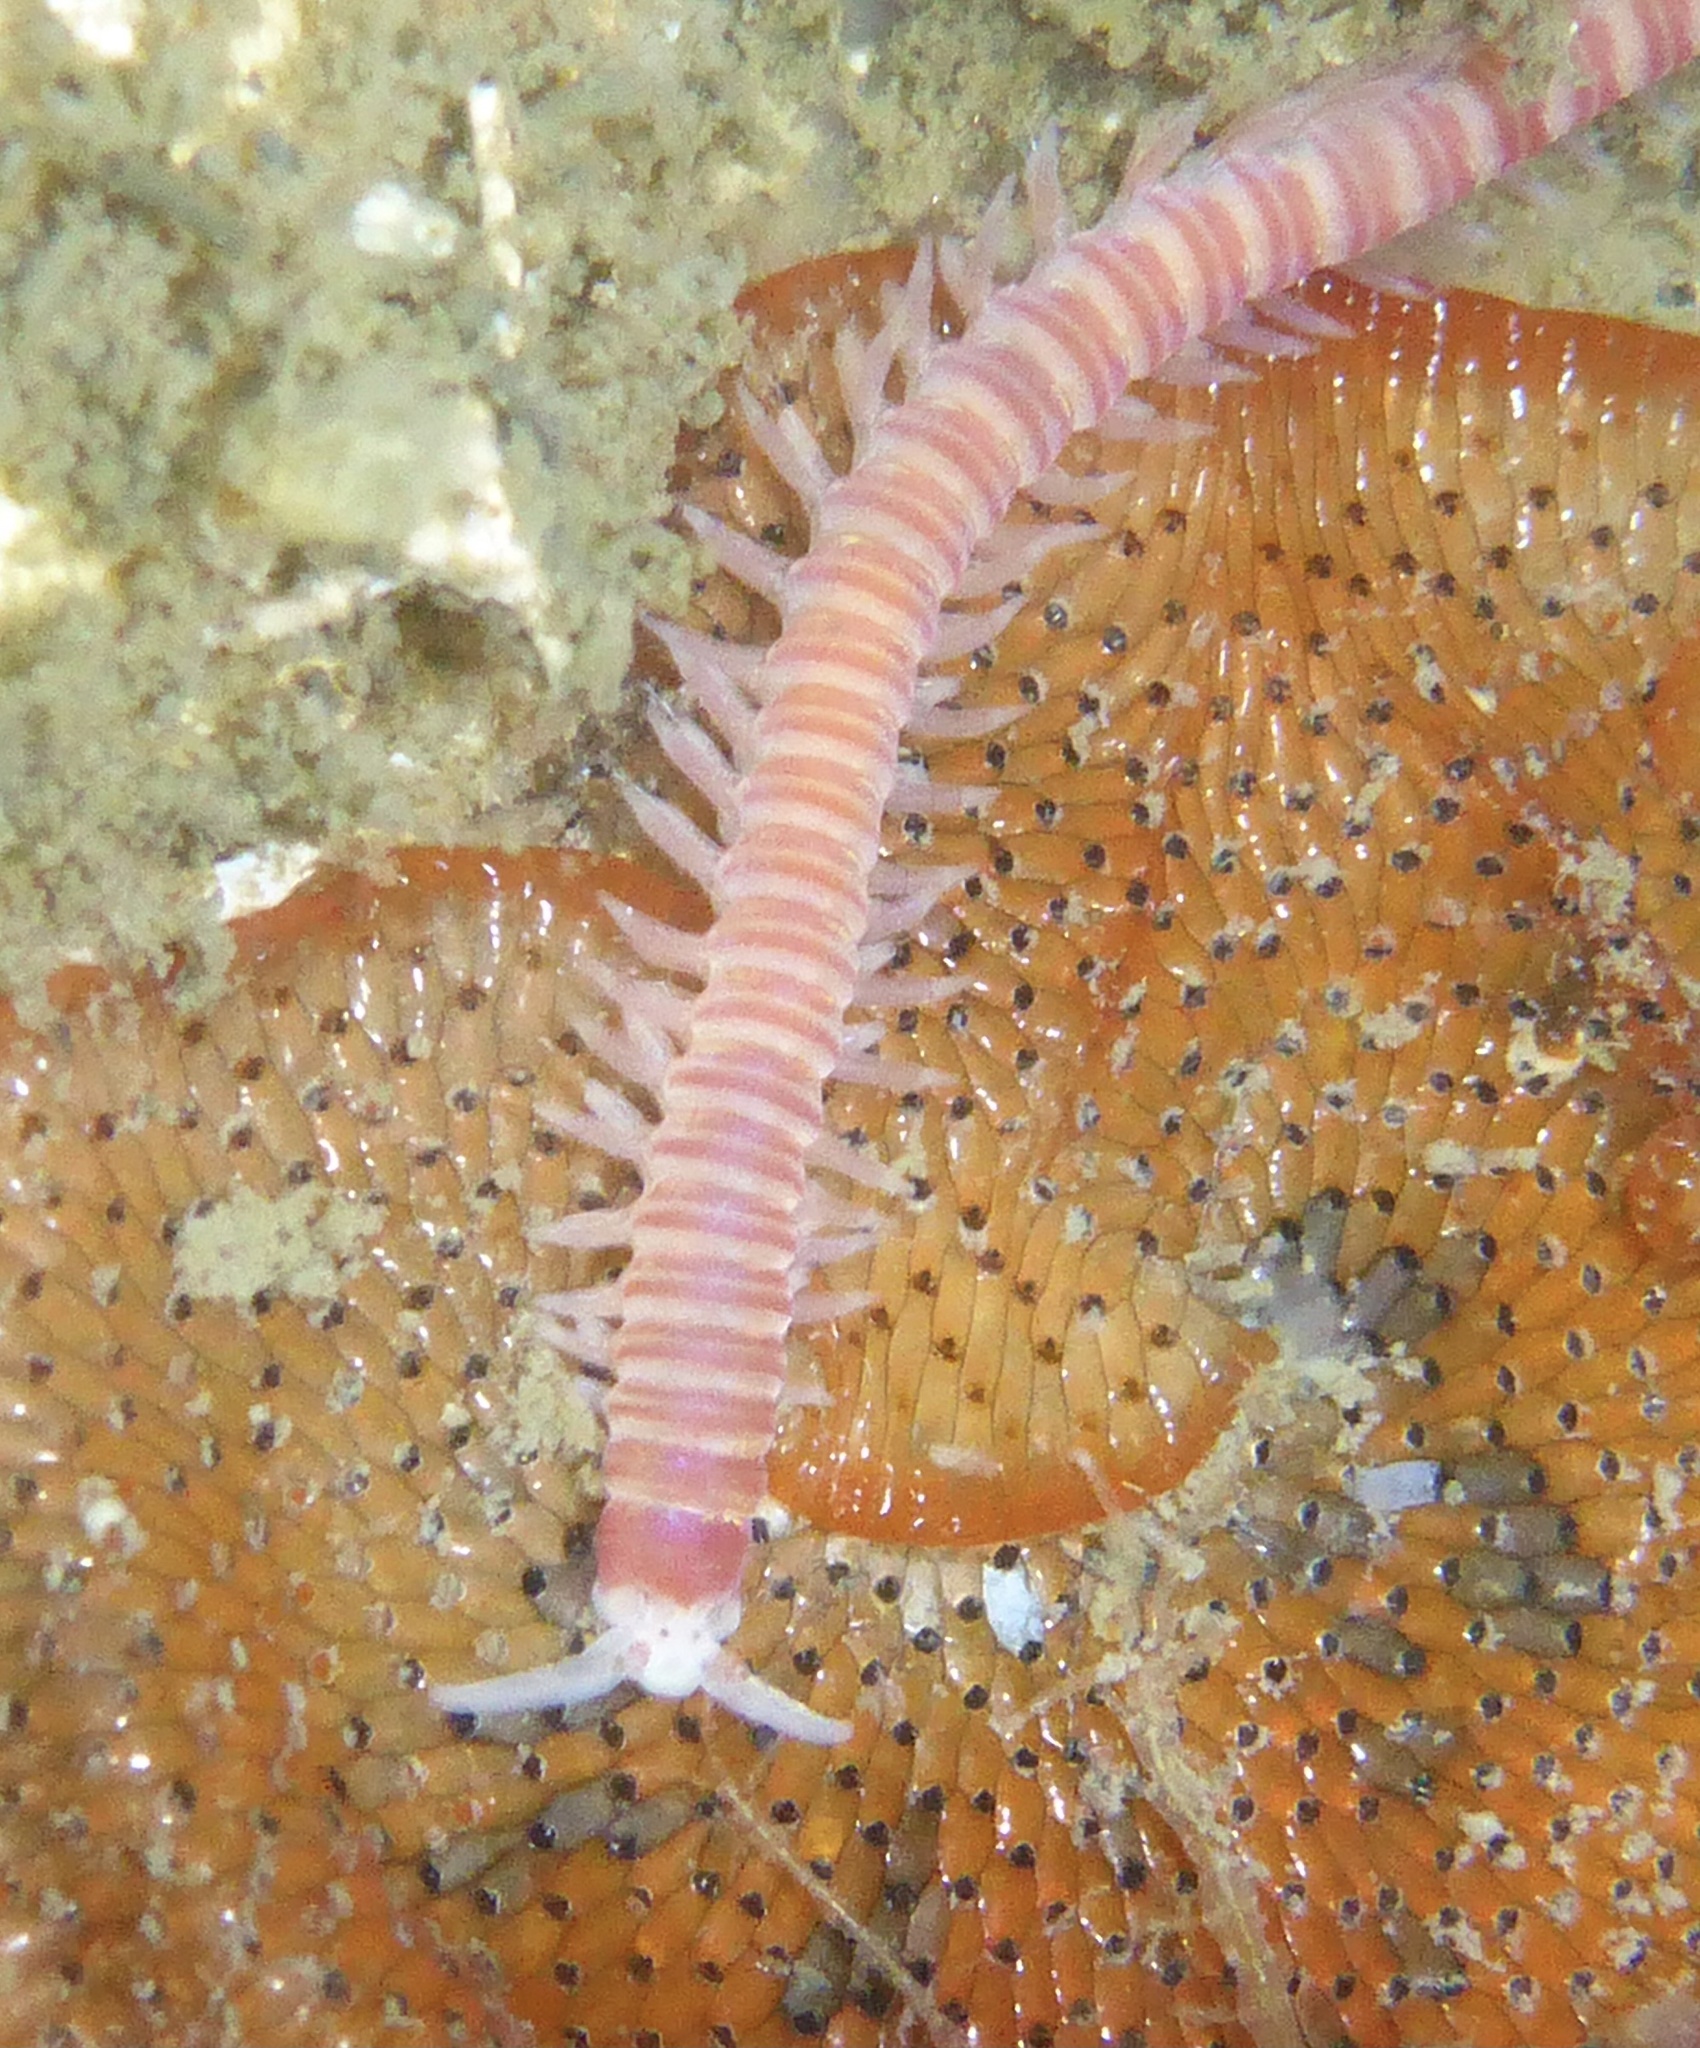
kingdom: Animalia
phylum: Annelida
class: Polychaeta
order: Eunicida
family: Dorvilleidae
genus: Dorvillea
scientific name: Dorvillea moniloceras
